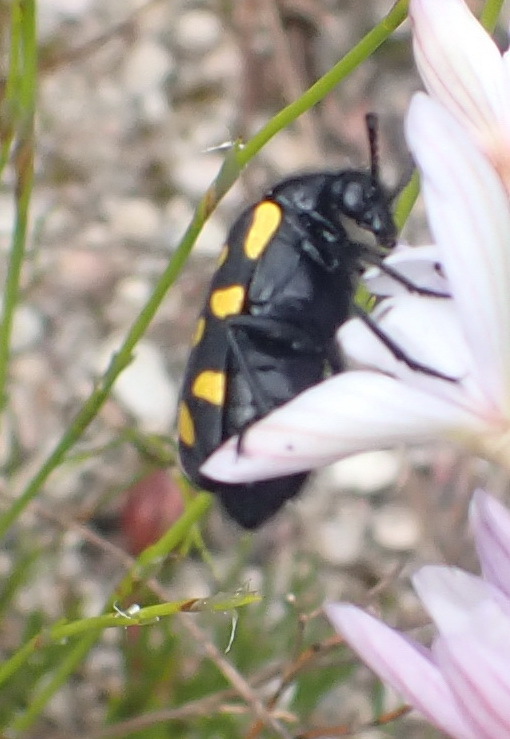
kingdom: Animalia
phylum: Arthropoda
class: Insecta
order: Coleoptera
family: Meloidae
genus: Ceroctis
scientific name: Ceroctis capensis
